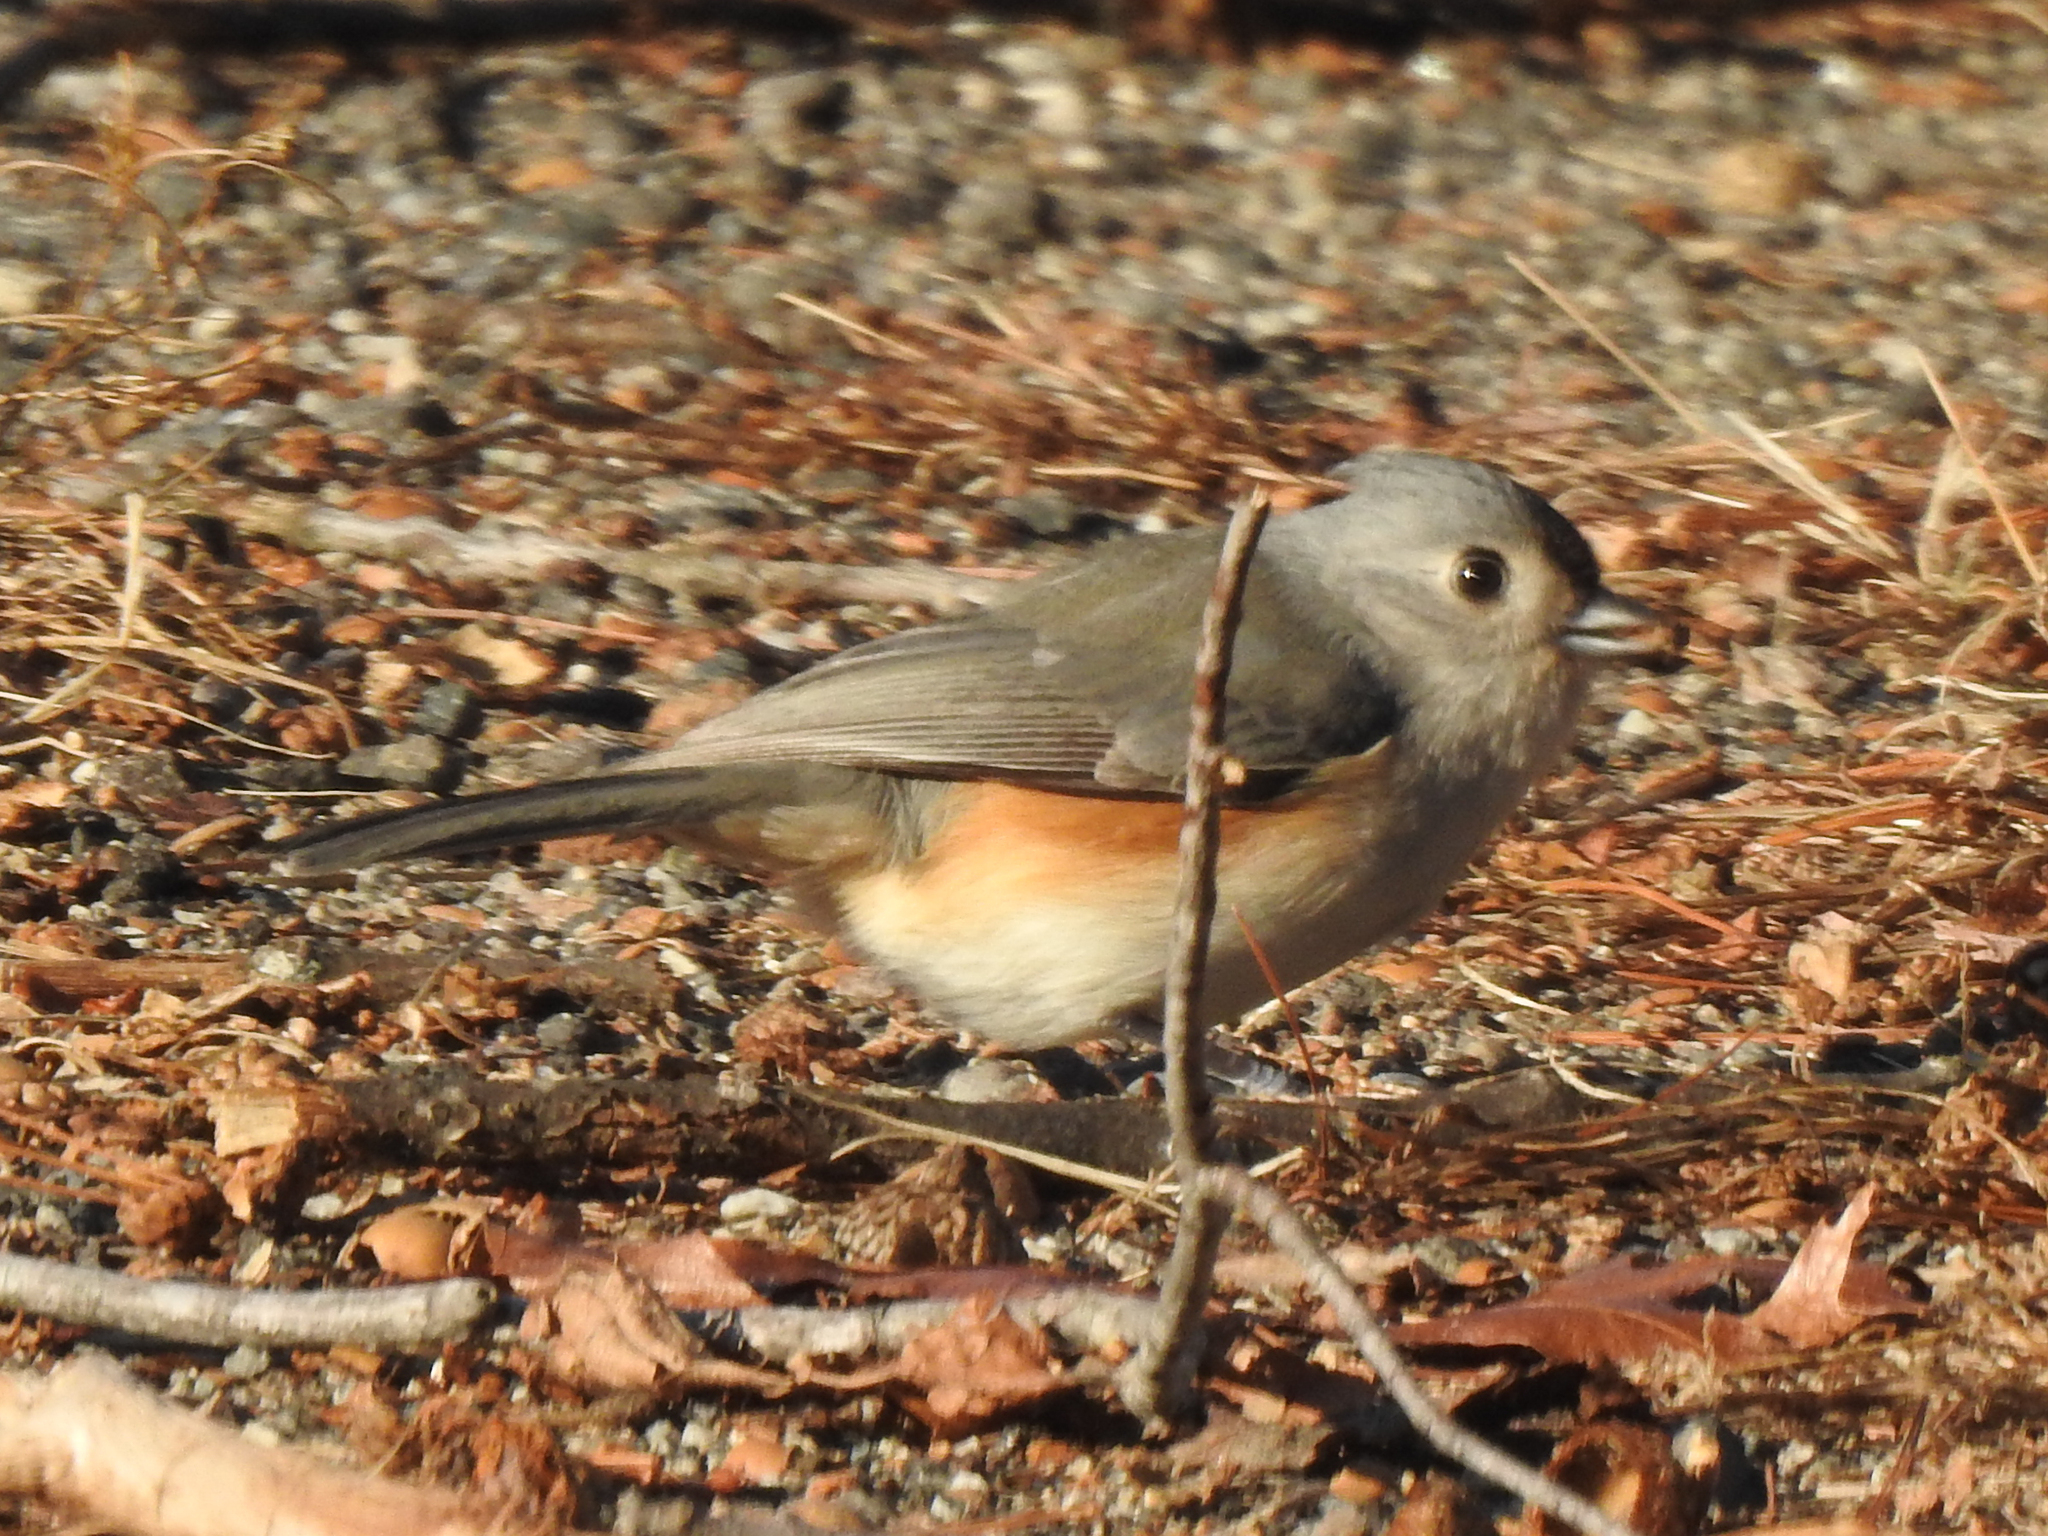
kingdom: Animalia
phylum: Chordata
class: Aves
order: Passeriformes
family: Paridae
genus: Baeolophus
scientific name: Baeolophus bicolor
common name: Tufted titmouse
